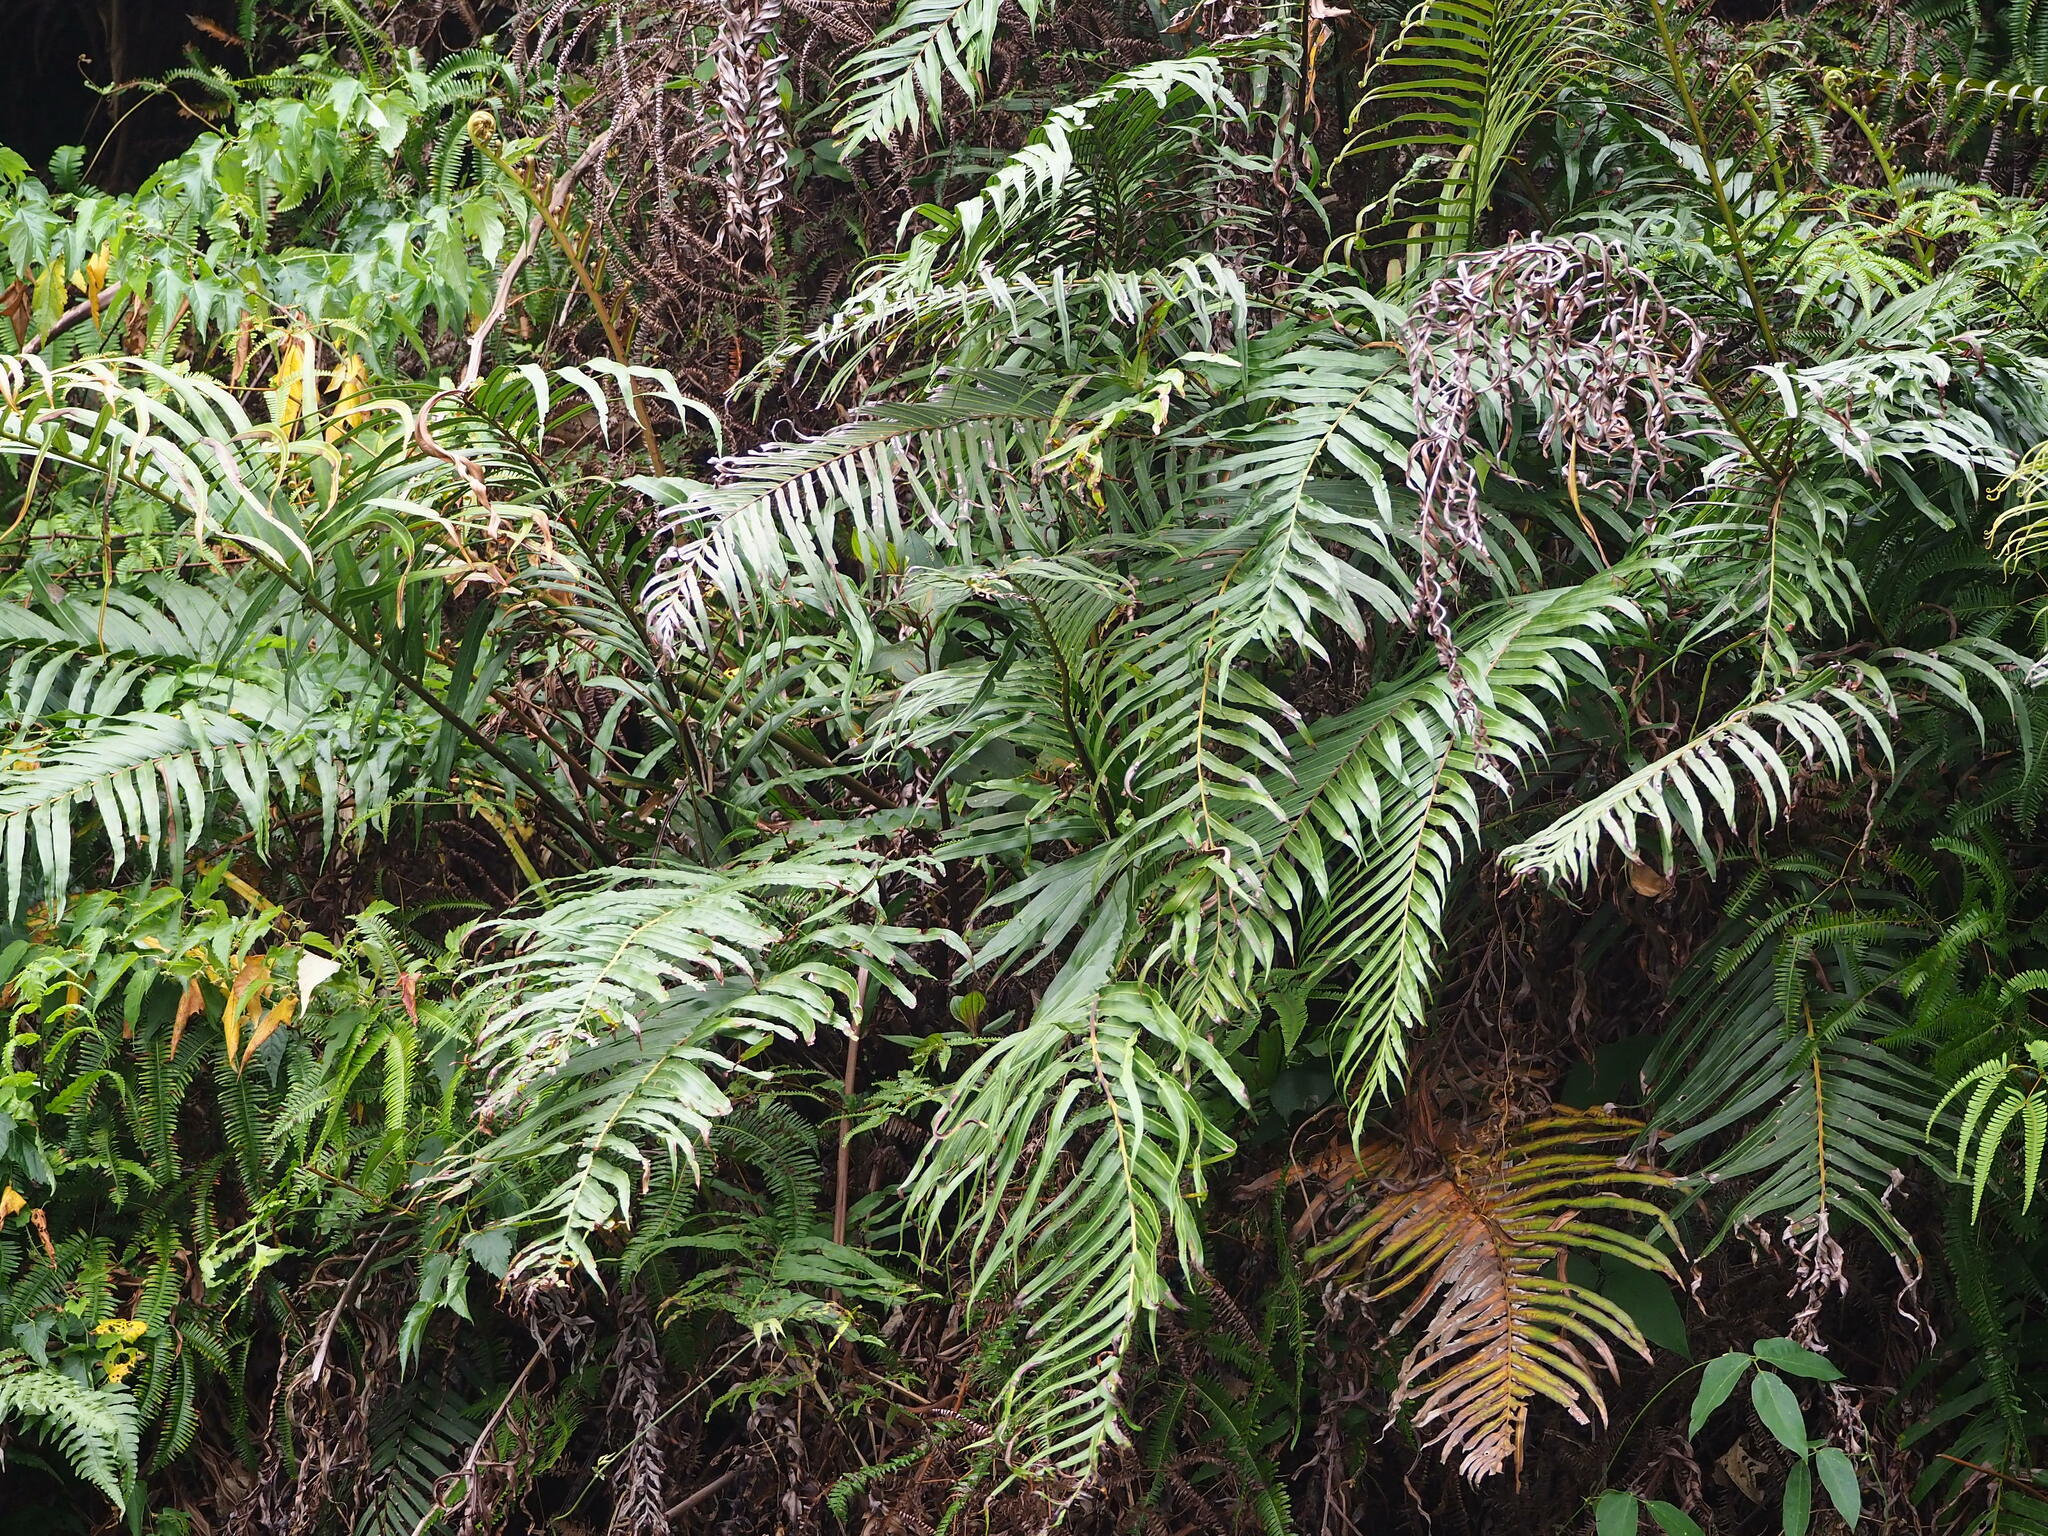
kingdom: Plantae
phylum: Tracheophyta
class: Polypodiopsida
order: Polypodiales
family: Blechnaceae
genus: Blechnopsis
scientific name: Blechnopsis orientalis
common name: Oriental blechnum
